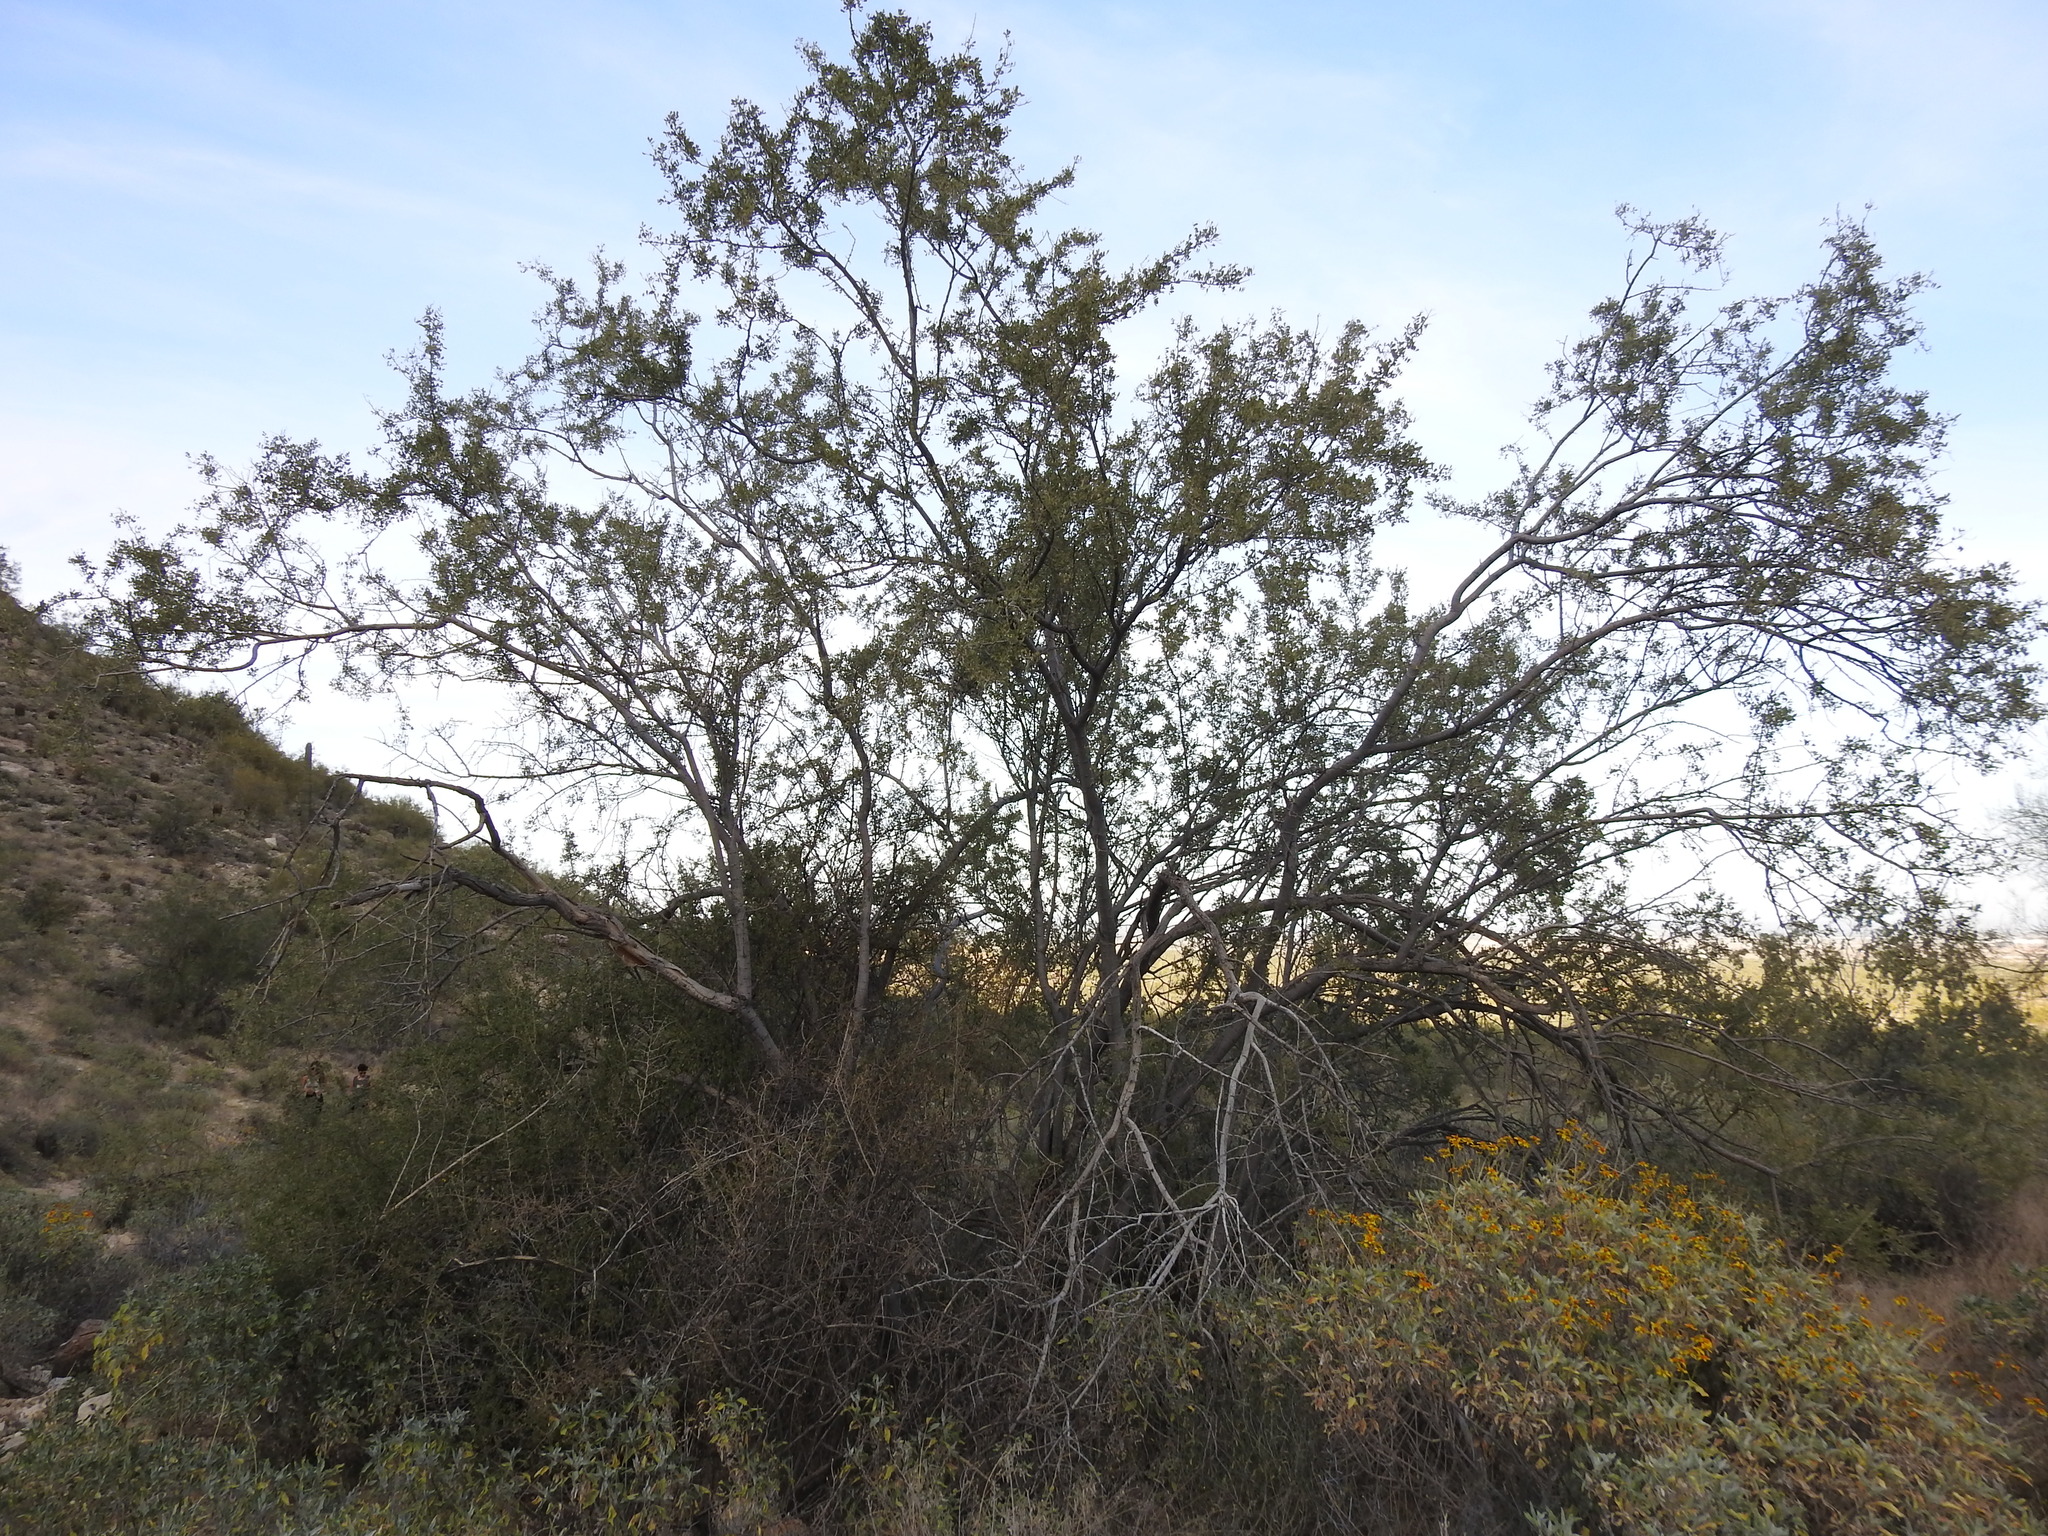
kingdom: Plantae
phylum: Tracheophyta
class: Magnoliopsida
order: Fabales
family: Fabaceae
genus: Olneya
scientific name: Olneya tesota
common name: Desert ironwood
